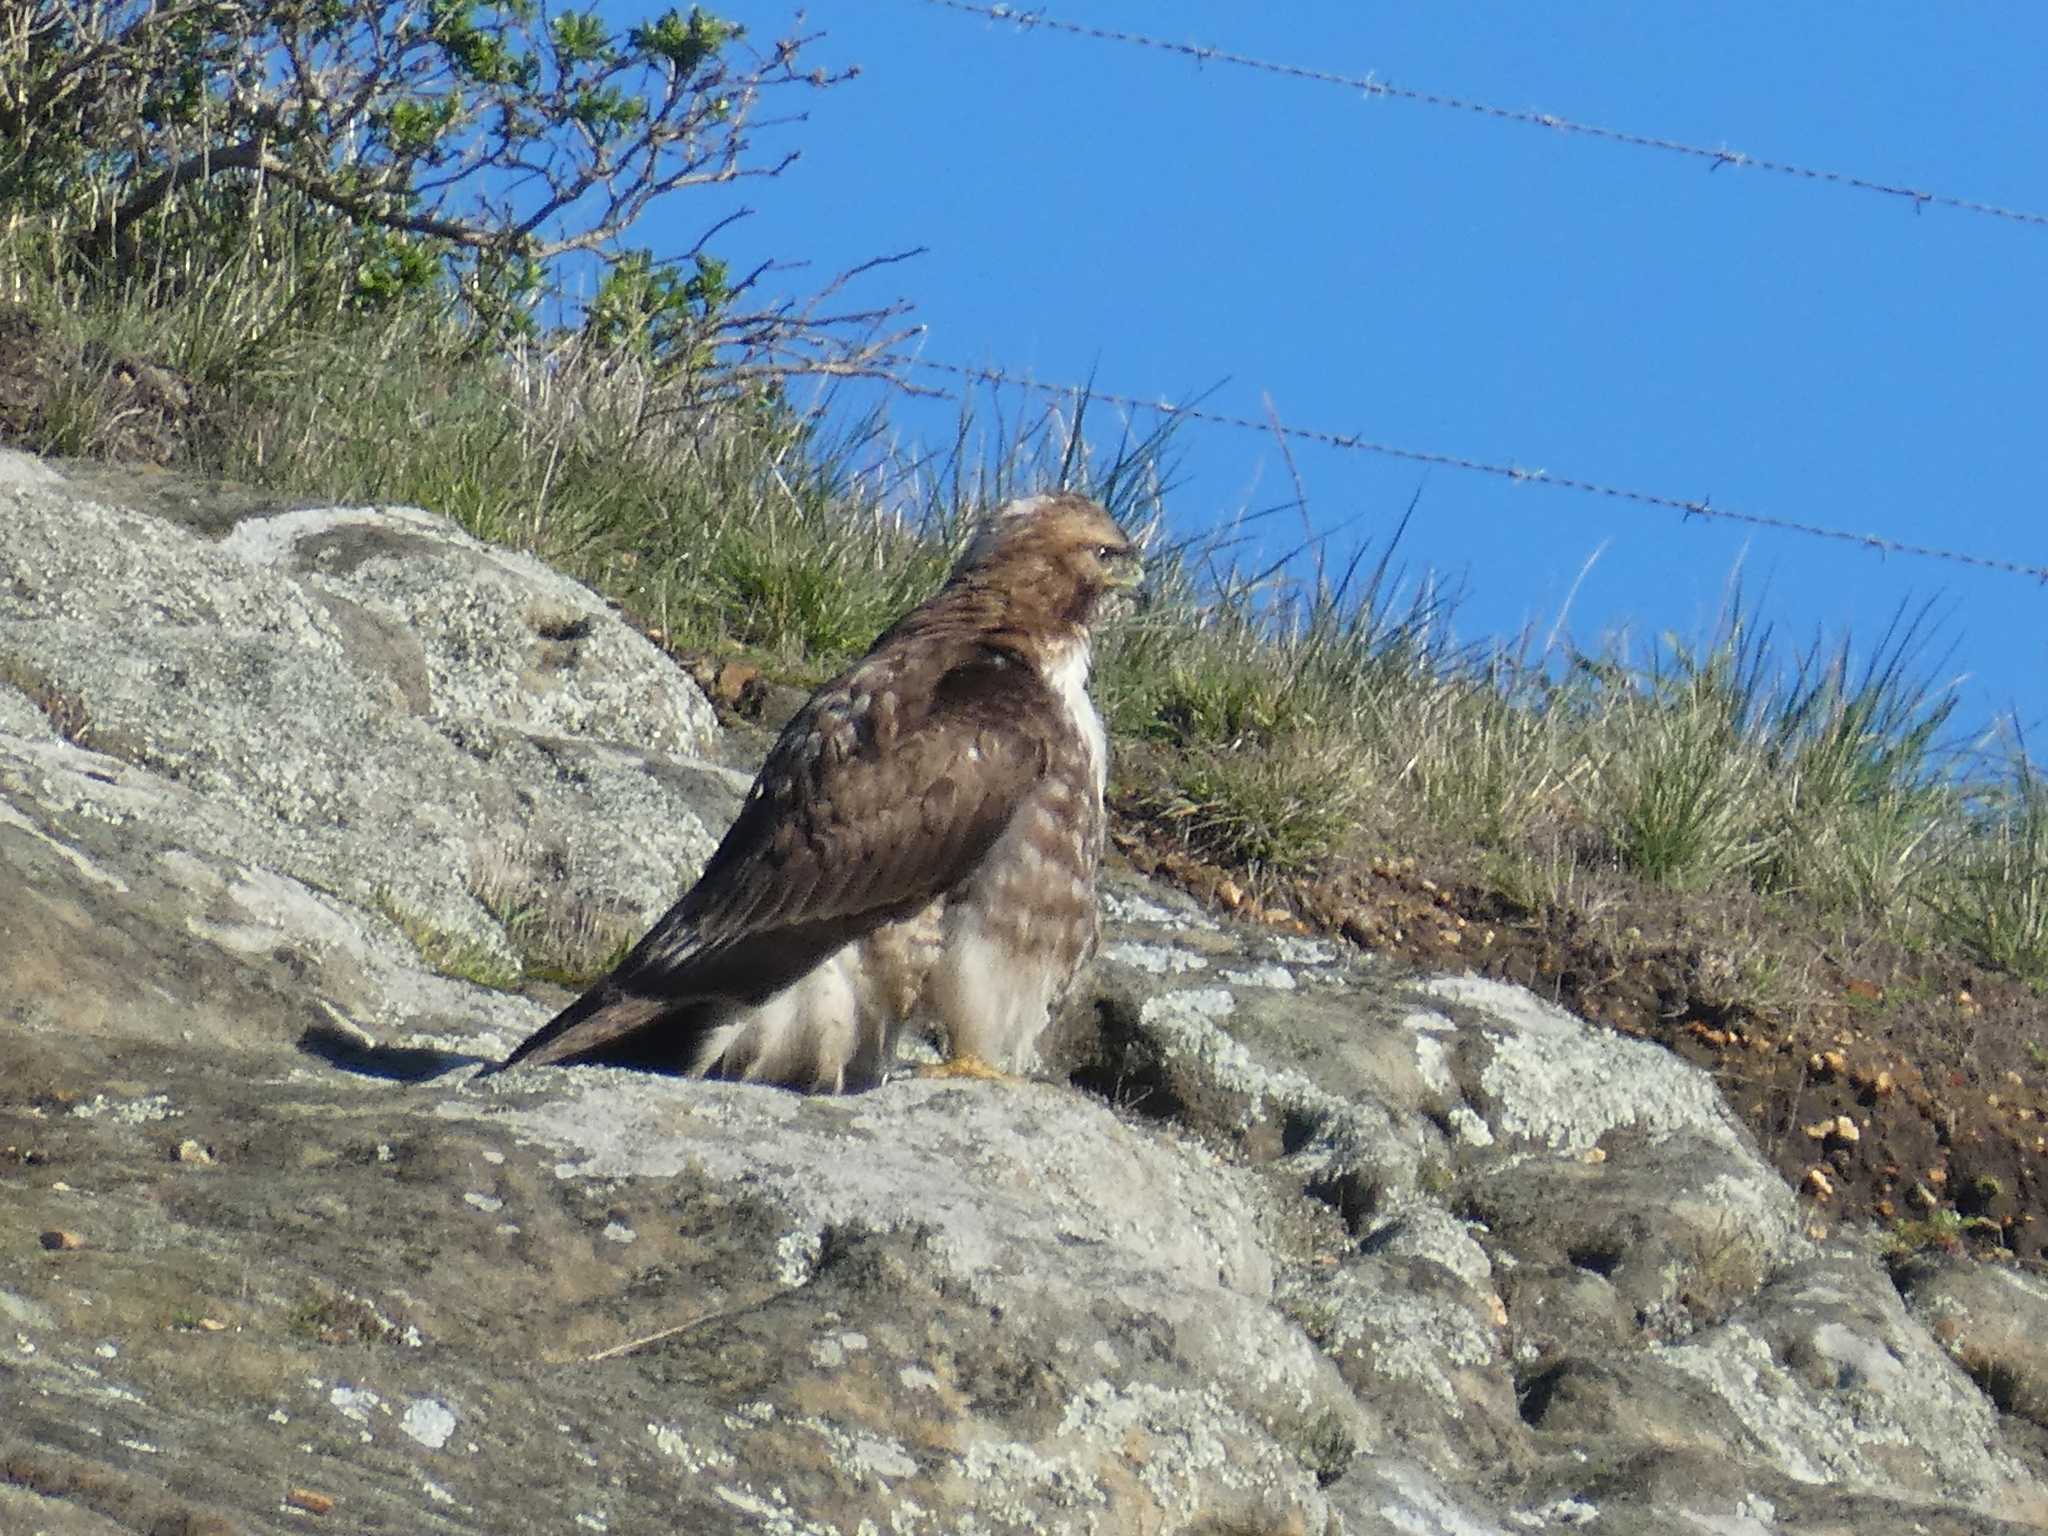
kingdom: Animalia
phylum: Chordata
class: Aves
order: Accipitriformes
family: Accipitridae
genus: Buteo
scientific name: Buteo jamaicensis
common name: Red-tailed hawk
